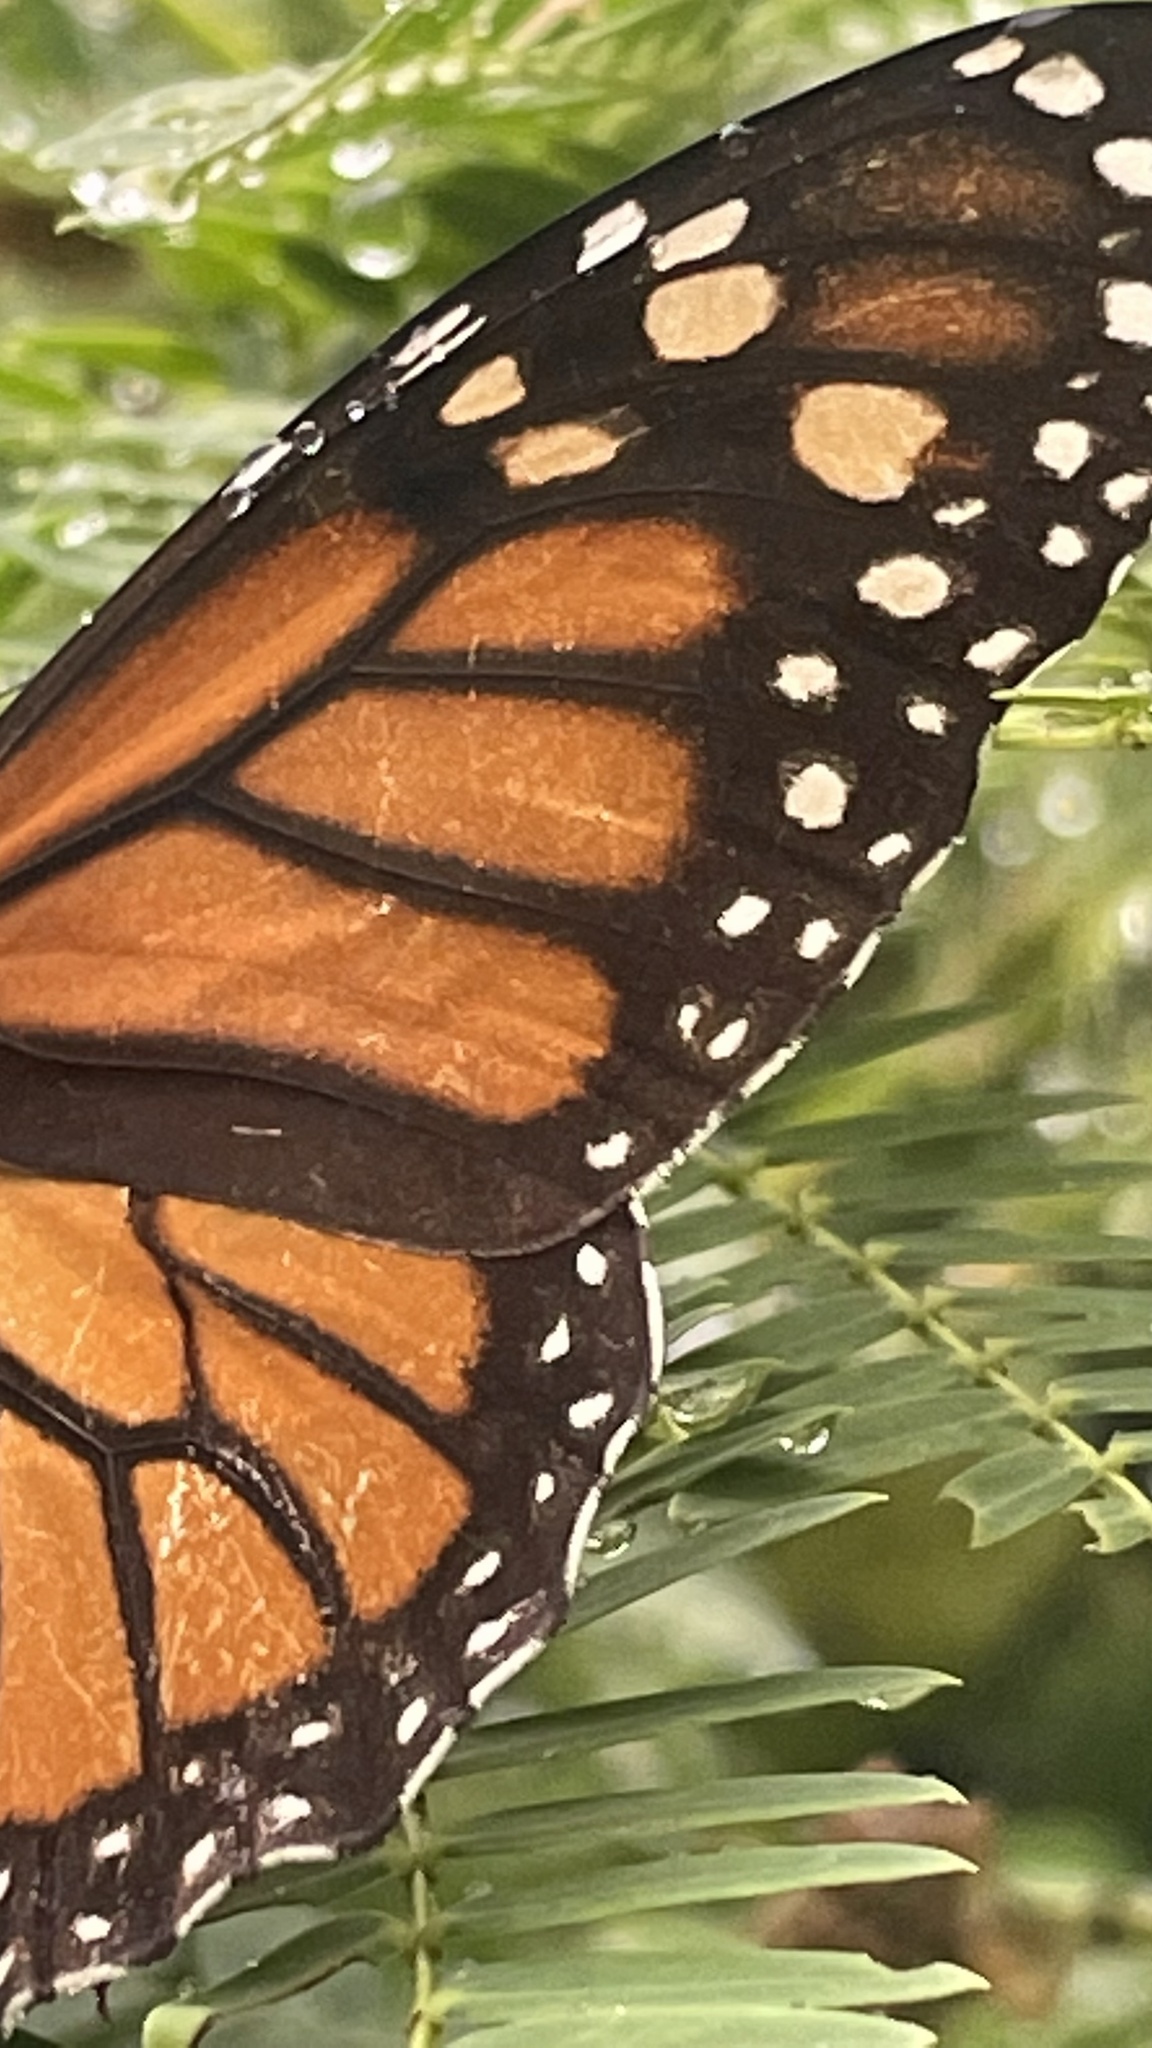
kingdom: Animalia
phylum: Arthropoda
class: Insecta
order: Lepidoptera
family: Nymphalidae
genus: Danaus
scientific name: Danaus plexippus
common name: Monarch
